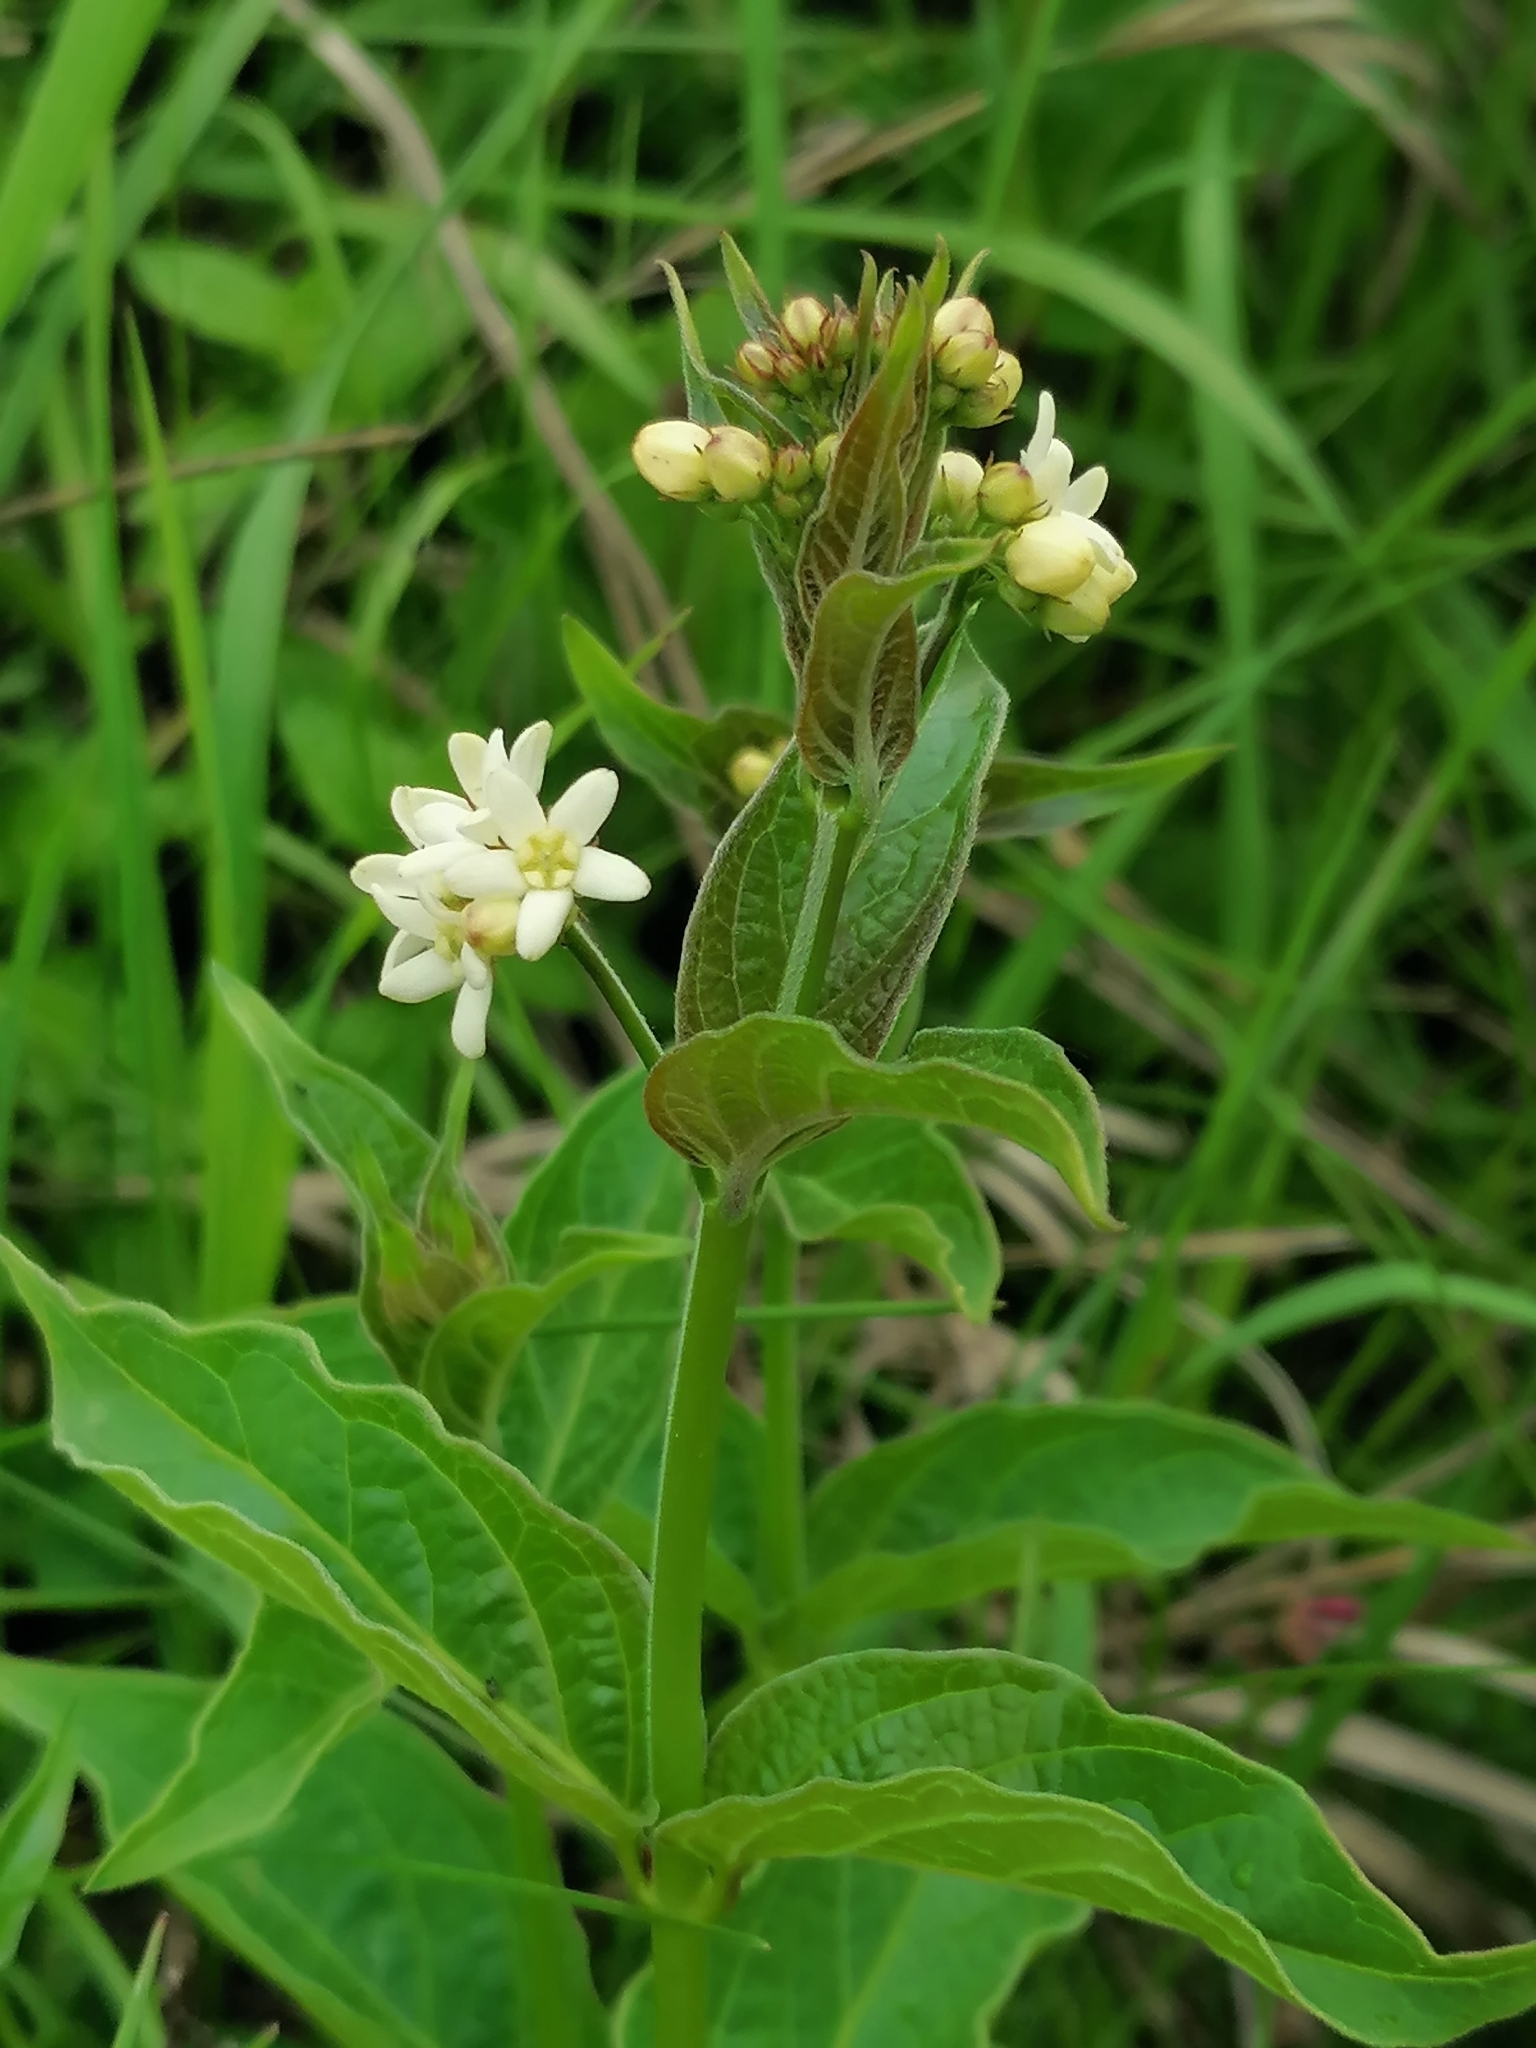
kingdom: Plantae
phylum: Tracheophyta
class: Magnoliopsida
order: Gentianales
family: Apocynaceae
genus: Vincetoxicum
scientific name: Vincetoxicum hirundinaria
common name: White swallowwort
